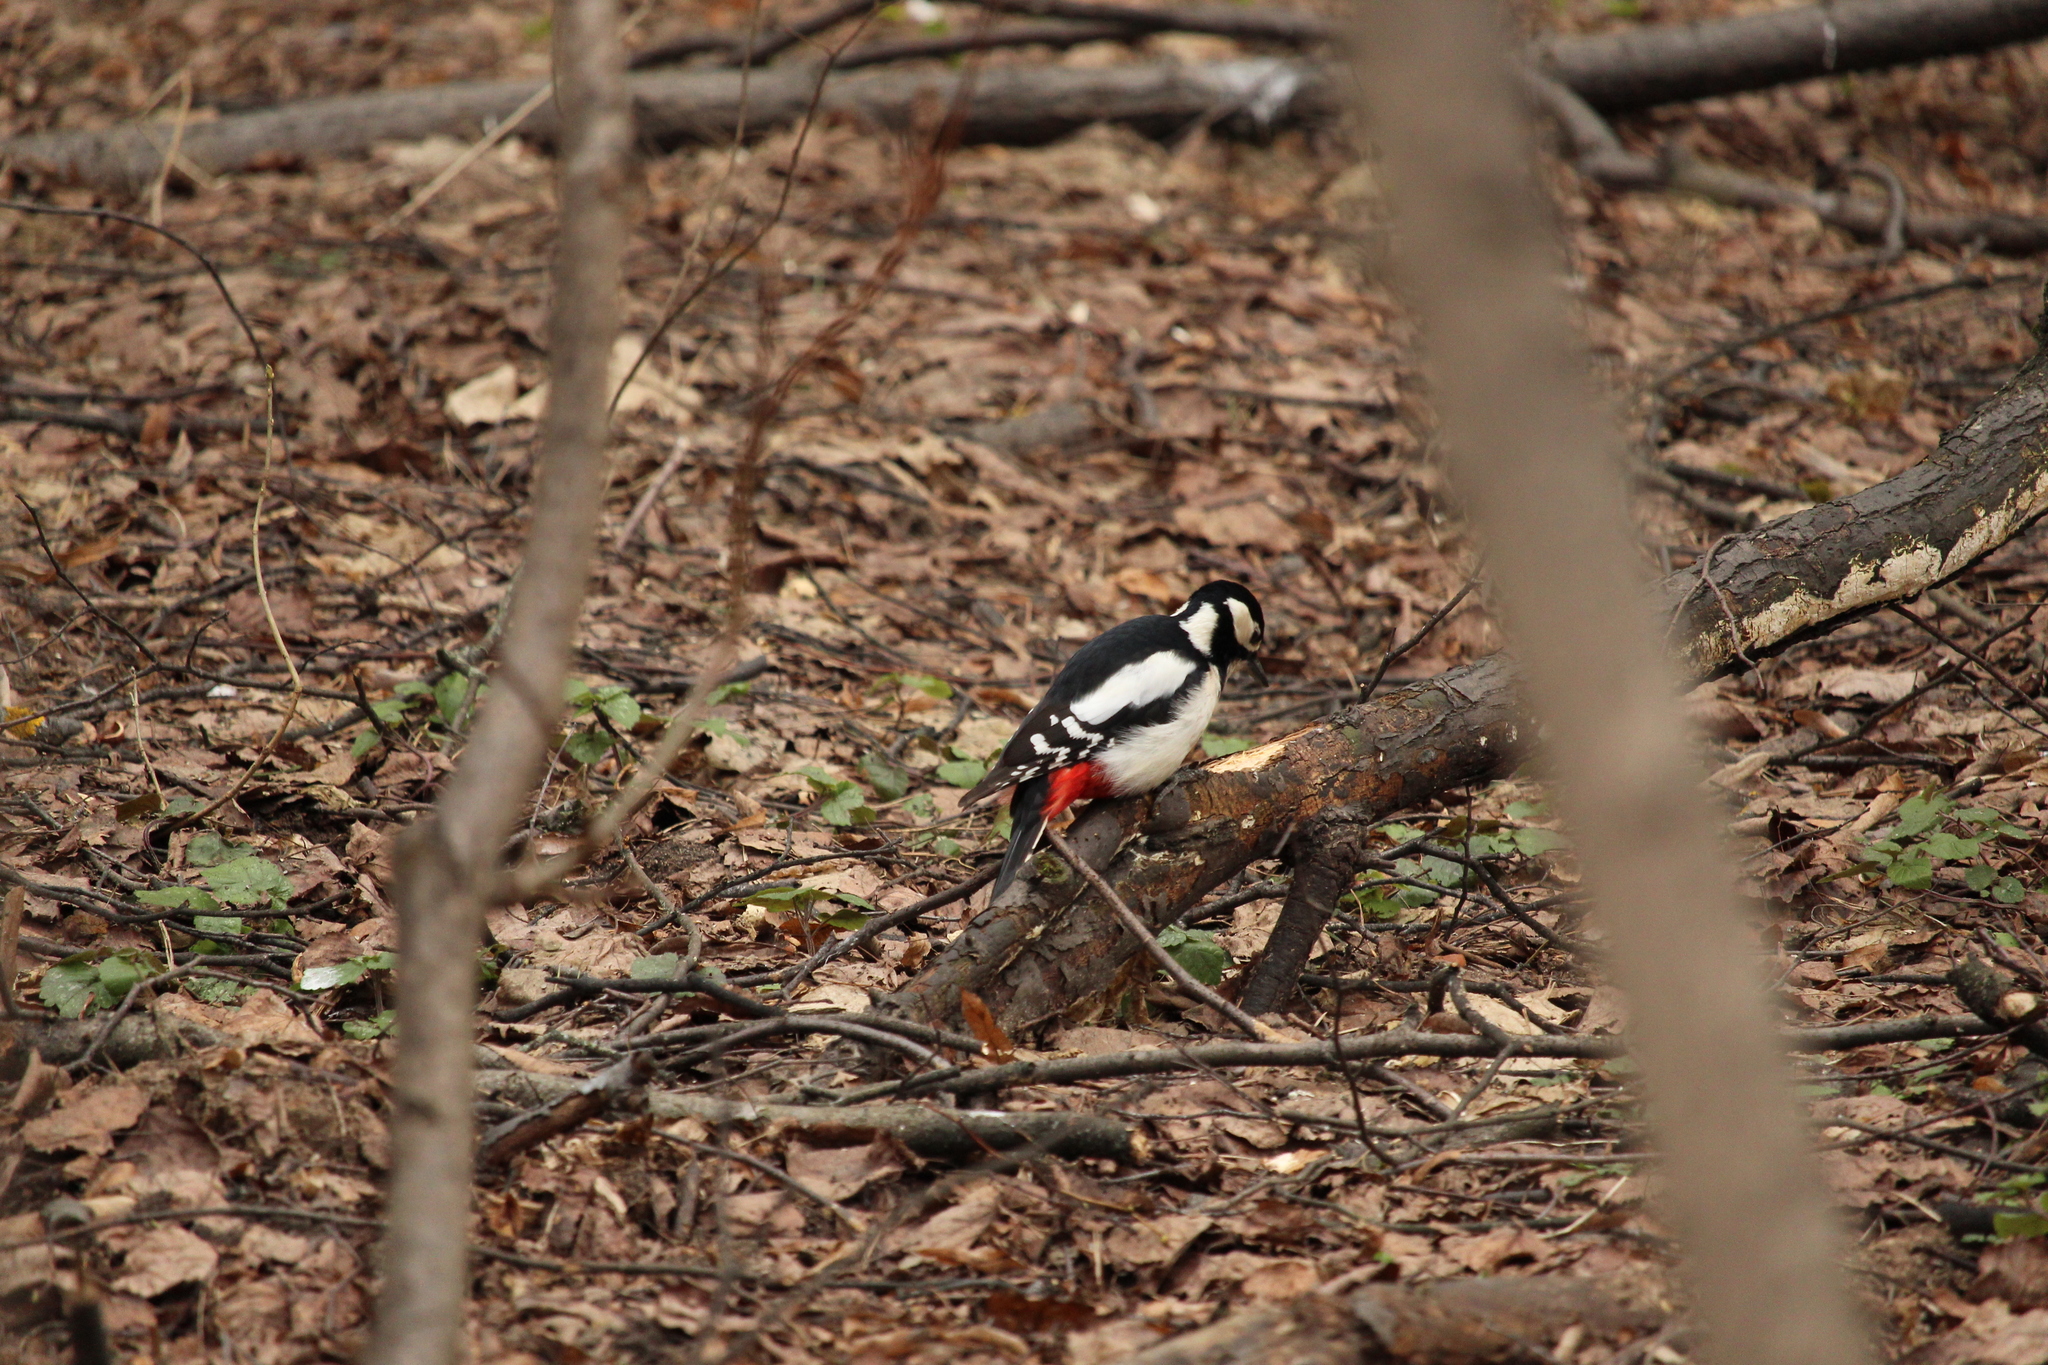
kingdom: Animalia
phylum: Chordata
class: Aves
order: Piciformes
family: Picidae
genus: Dendrocopos
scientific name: Dendrocopos major
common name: Great spotted woodpecker
